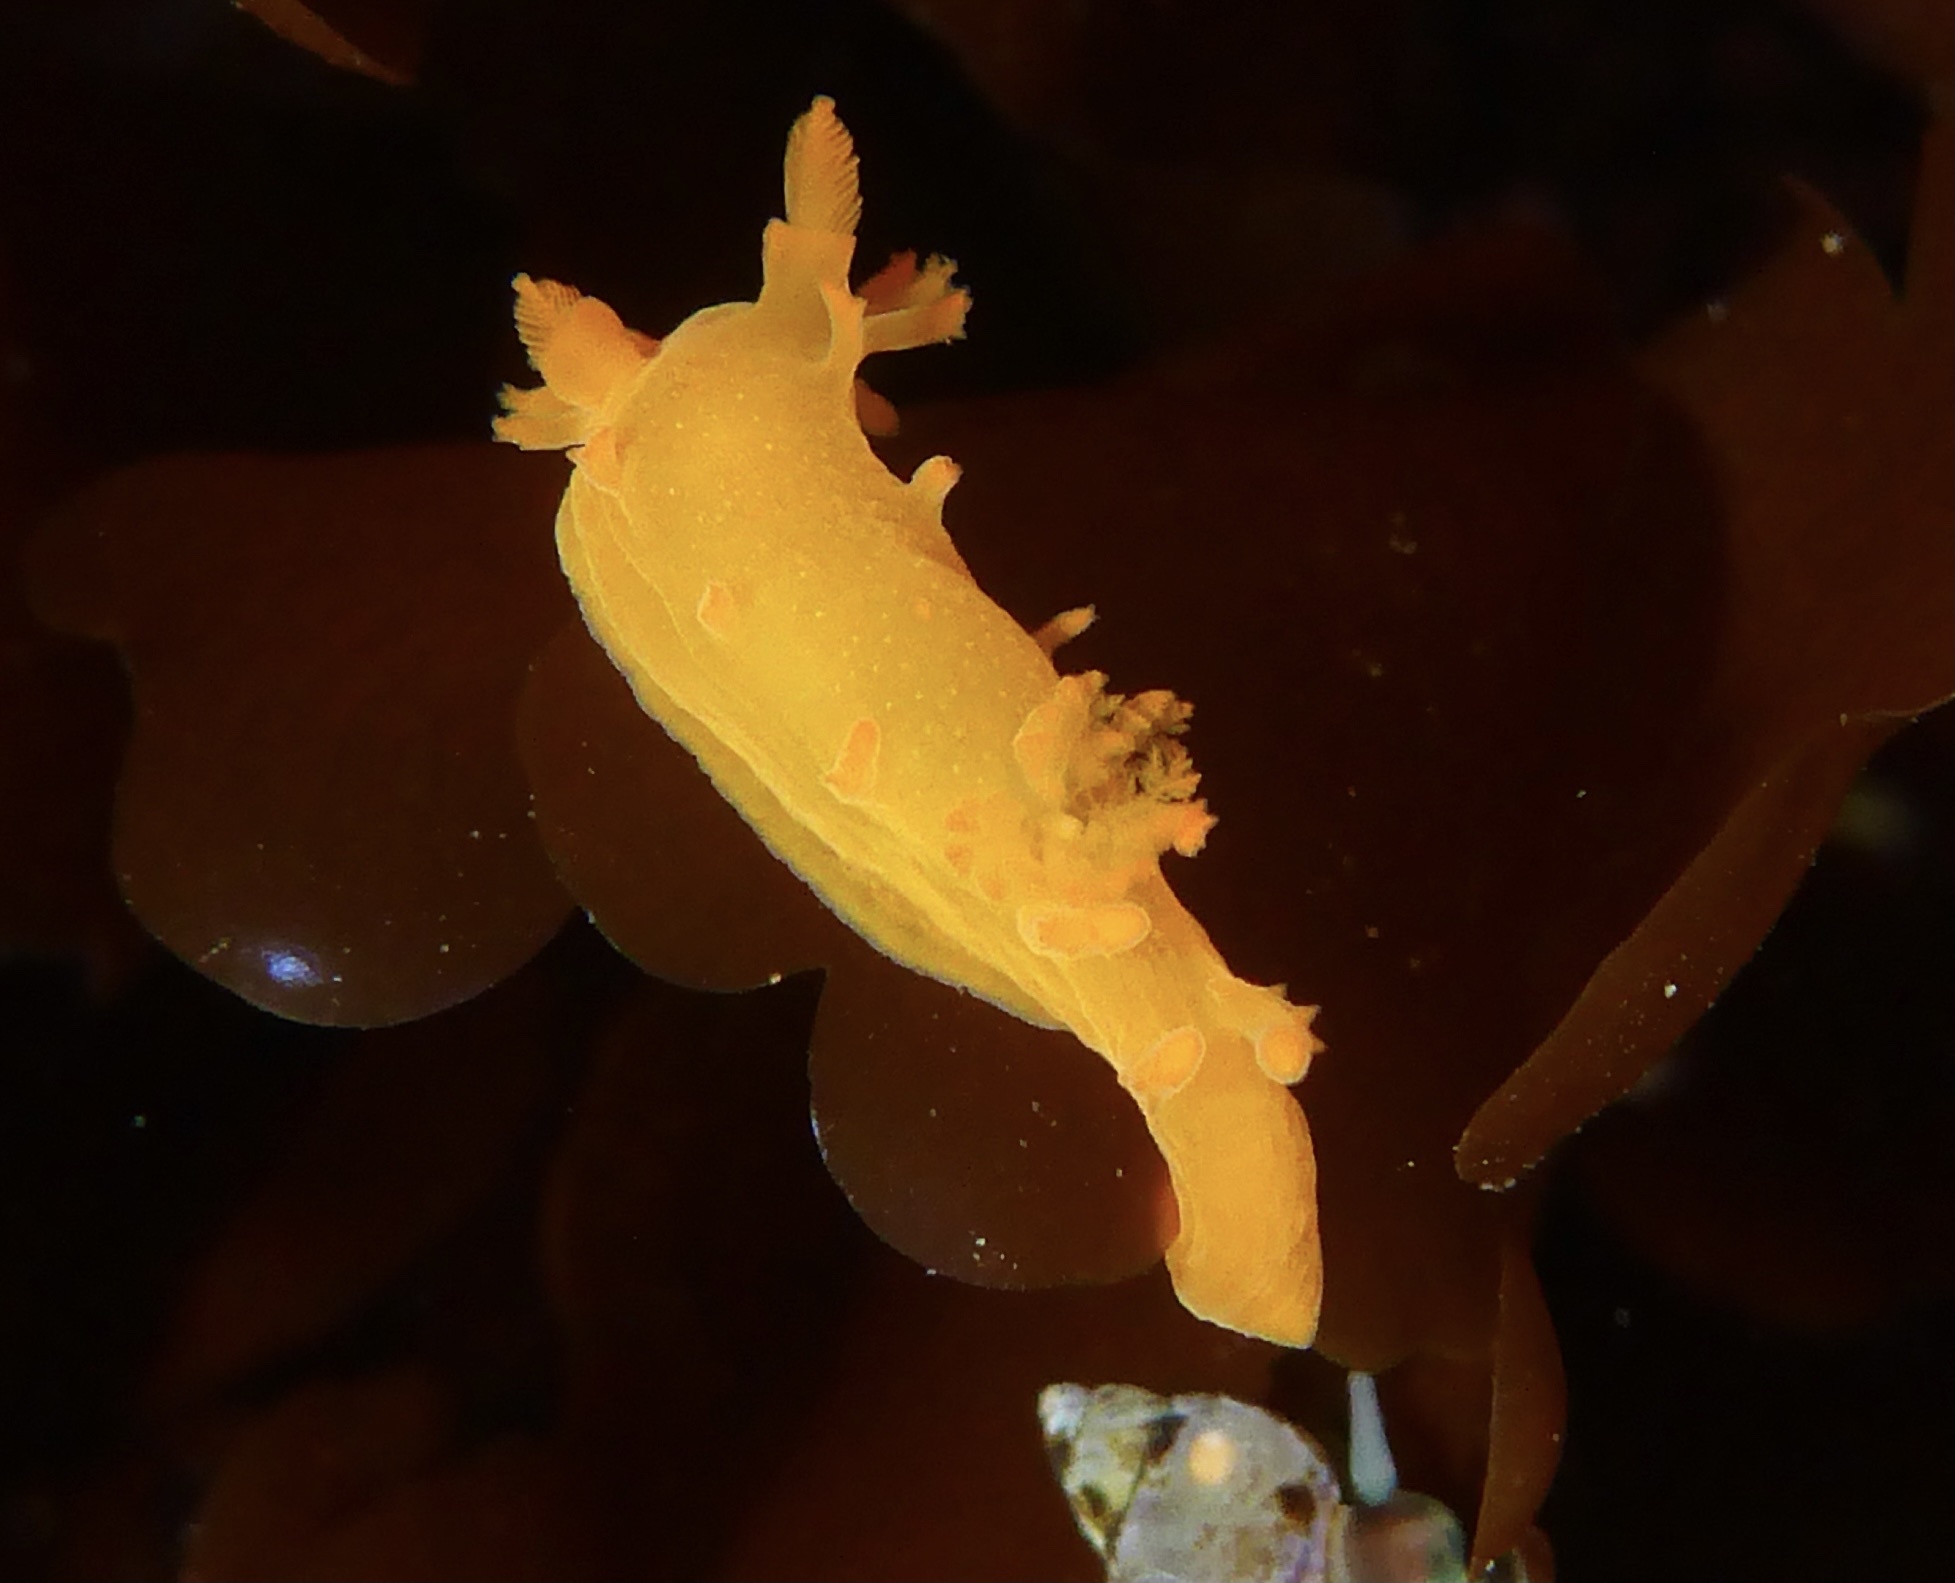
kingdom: Animalia
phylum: Mollusca
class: Gastropoda
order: Nudibranchia
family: Polyceridae
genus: Triopha
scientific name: Triopha maculata
